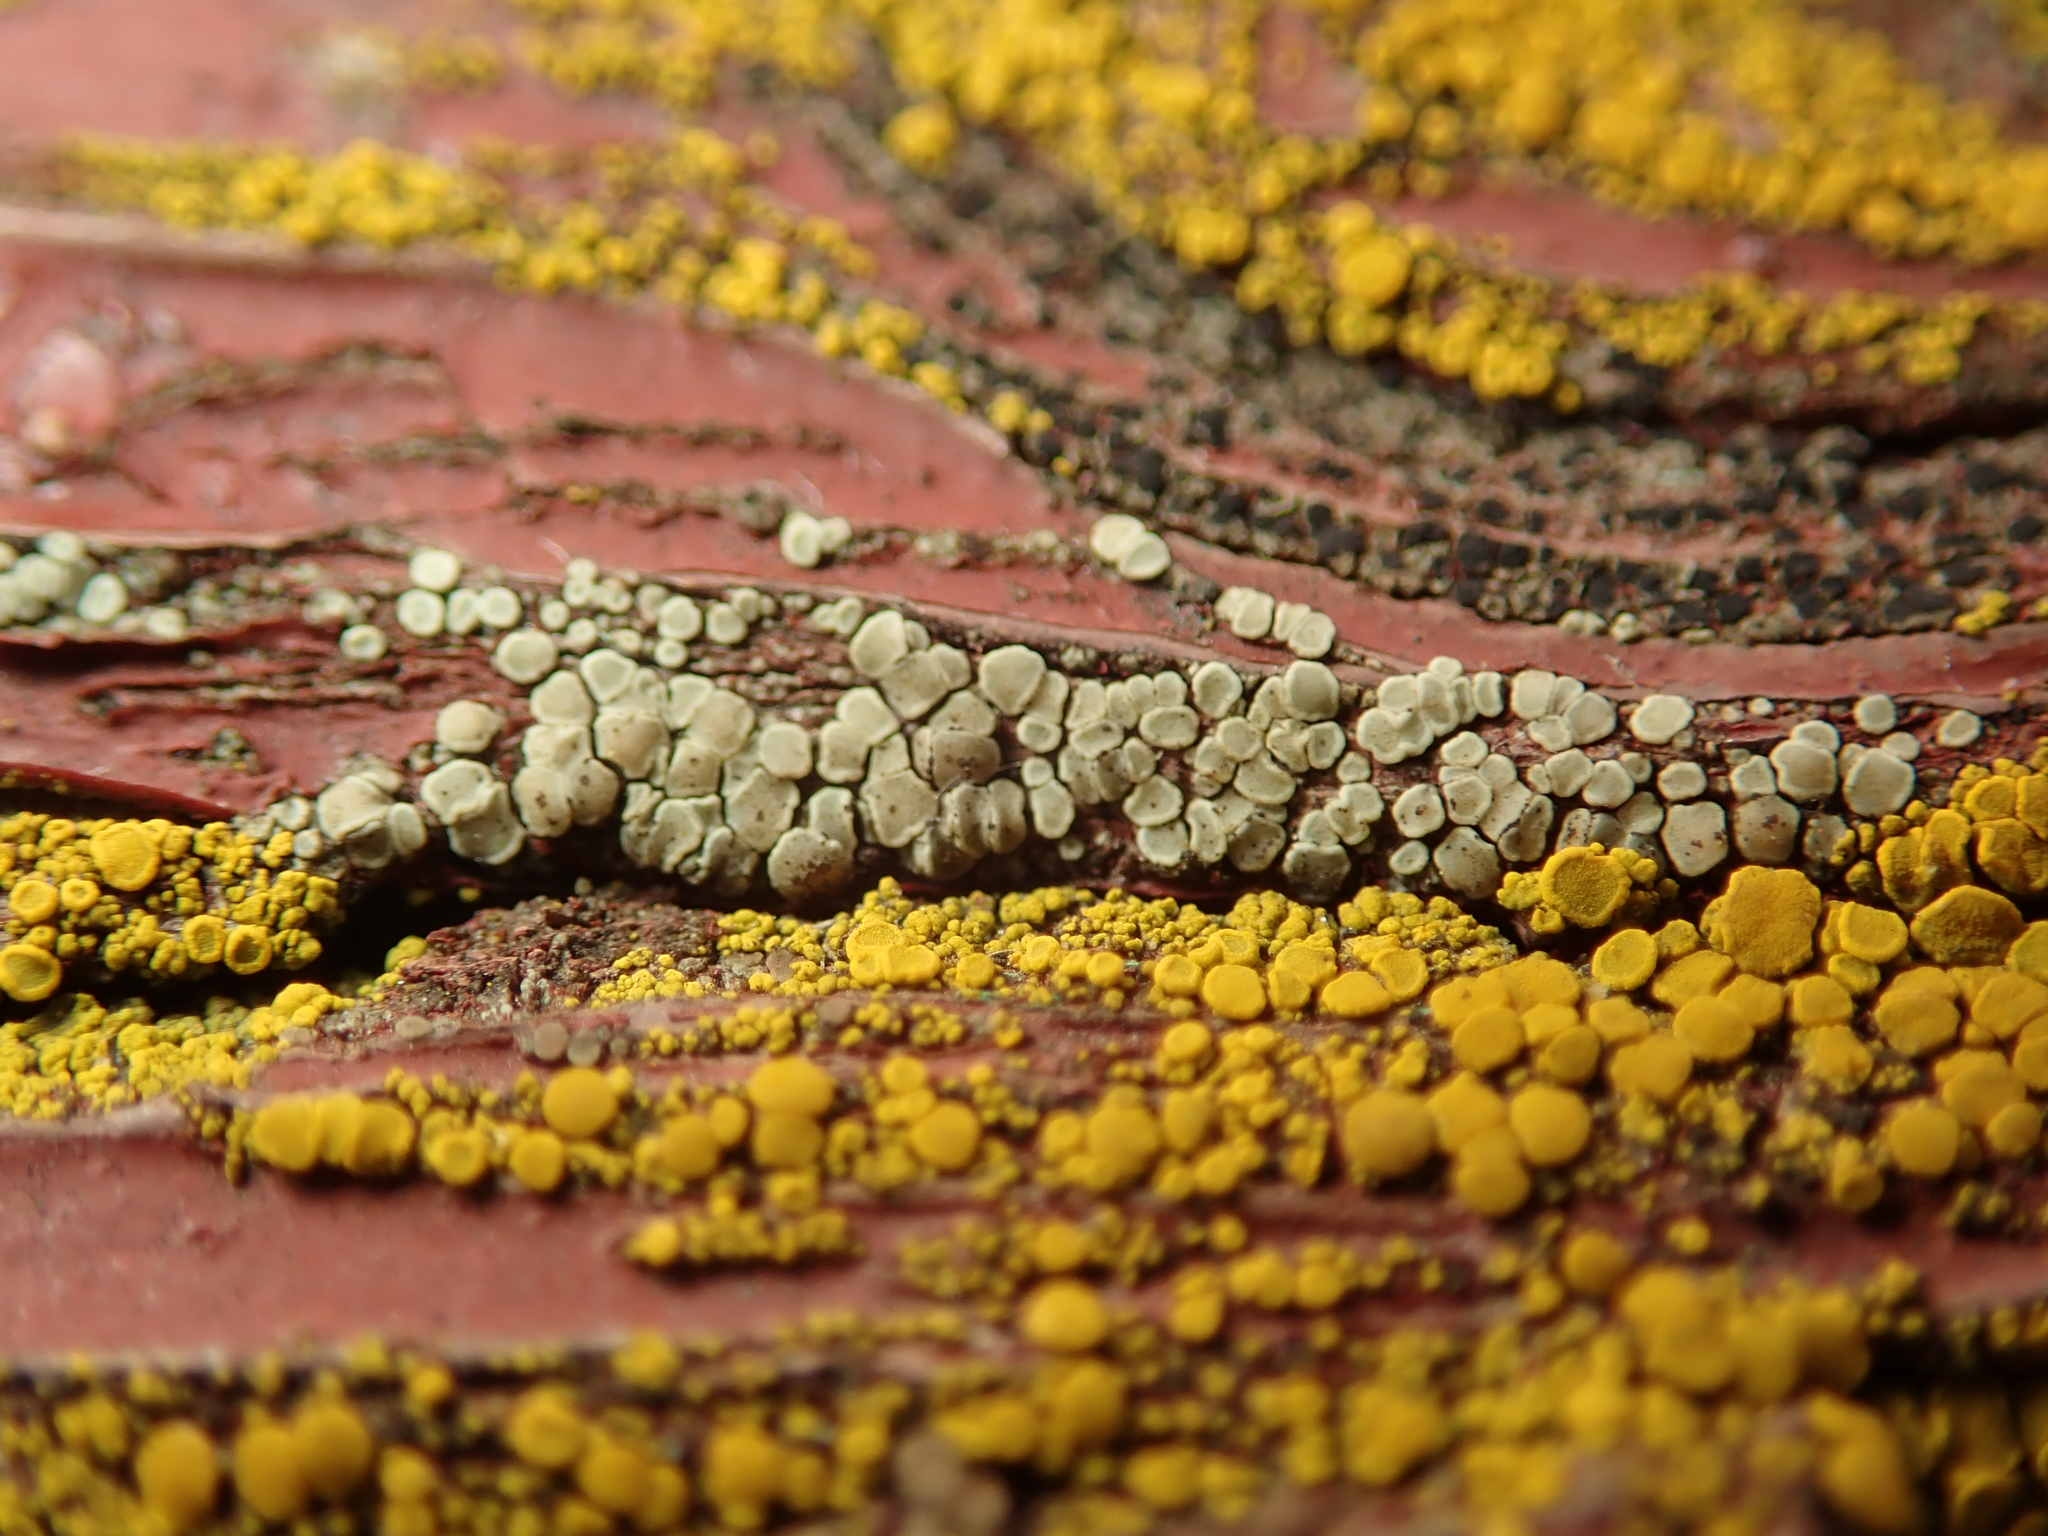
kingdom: Fungi
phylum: Ascomycota
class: Lecanoromycetes
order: Lecanorales
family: Lecanoraceae
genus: Myriolecis
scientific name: Myriolecis
